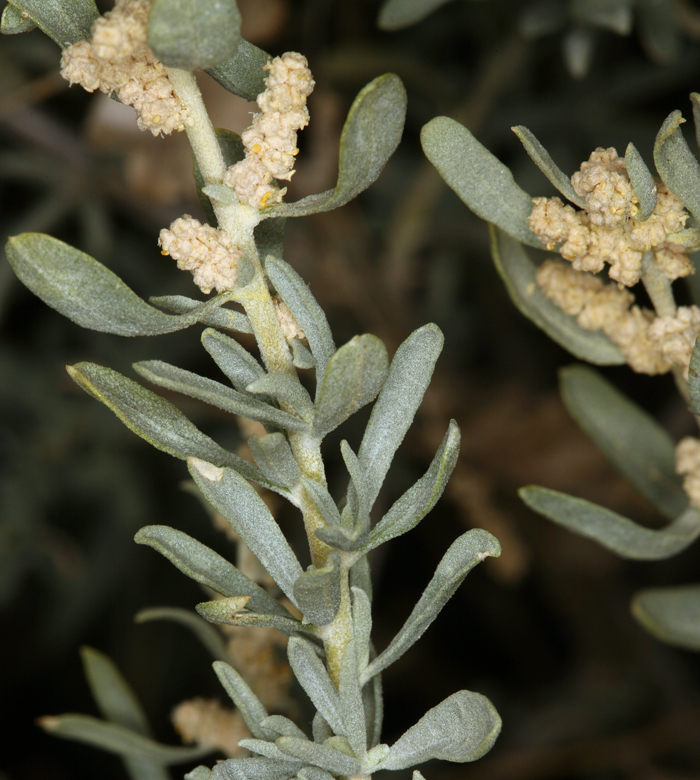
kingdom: Plantae
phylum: Tracheophyta
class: Magnoliopsida
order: Caryophyllales
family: Amaranthaceae
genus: Atriplex
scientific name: Atriplex canescens
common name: Four-wing saltbush
